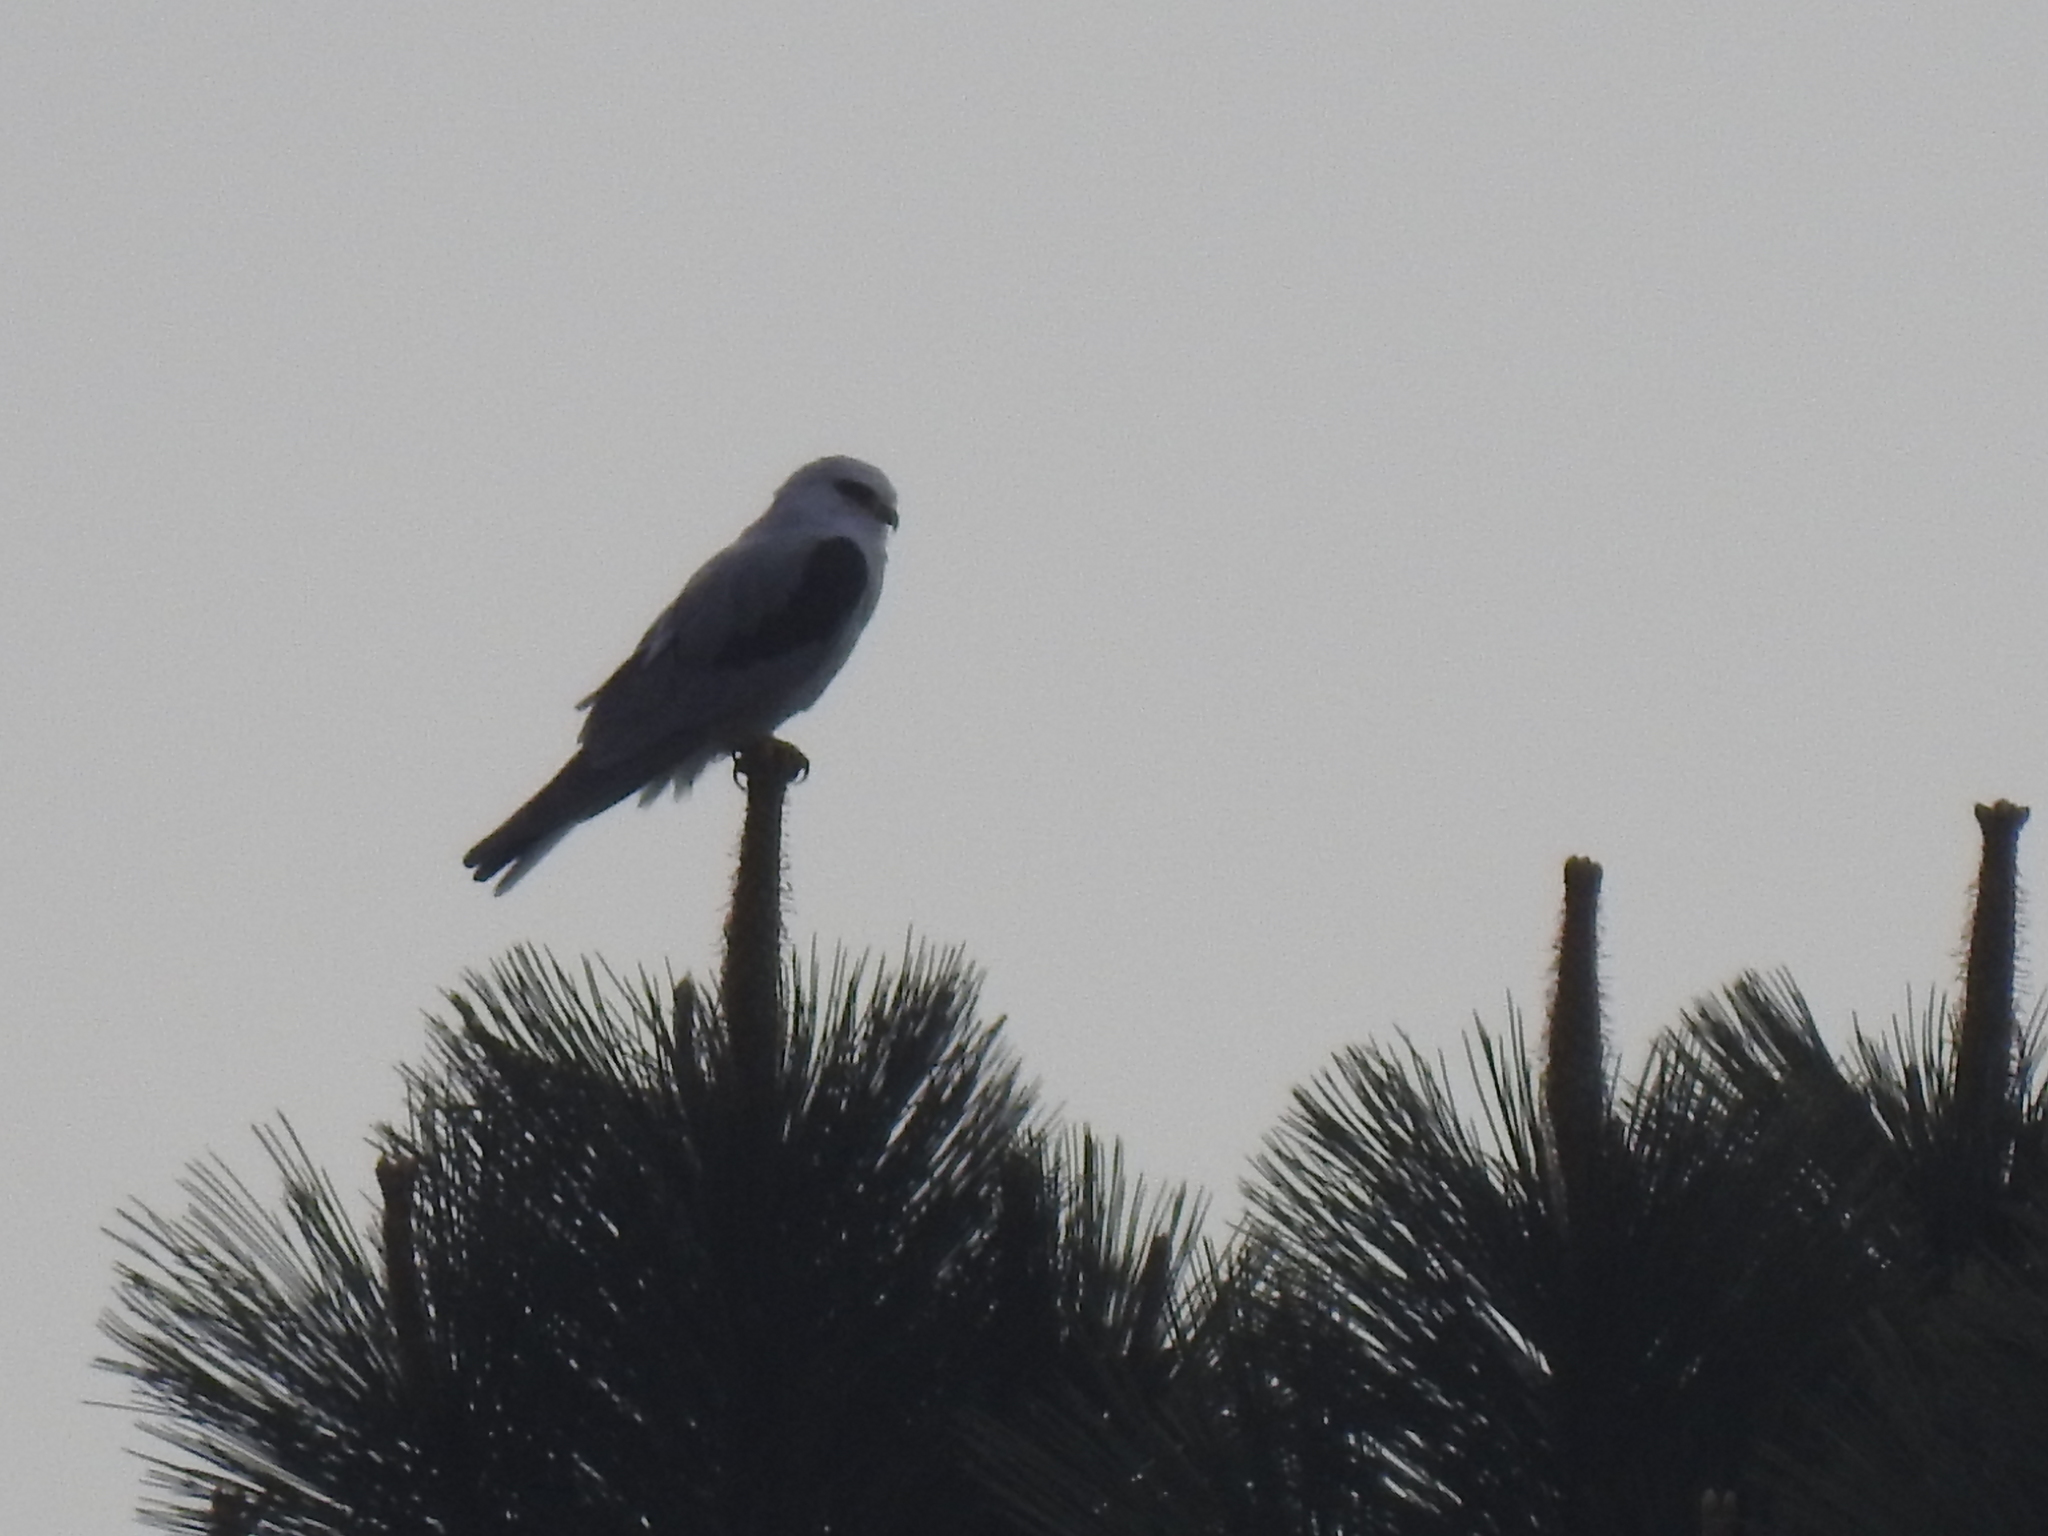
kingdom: Animalia
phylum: Chordata
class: Aves
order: Accipitriformes
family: Accipitridae
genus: Elanus
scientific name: Elanus leucurus
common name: White-tailed kite
